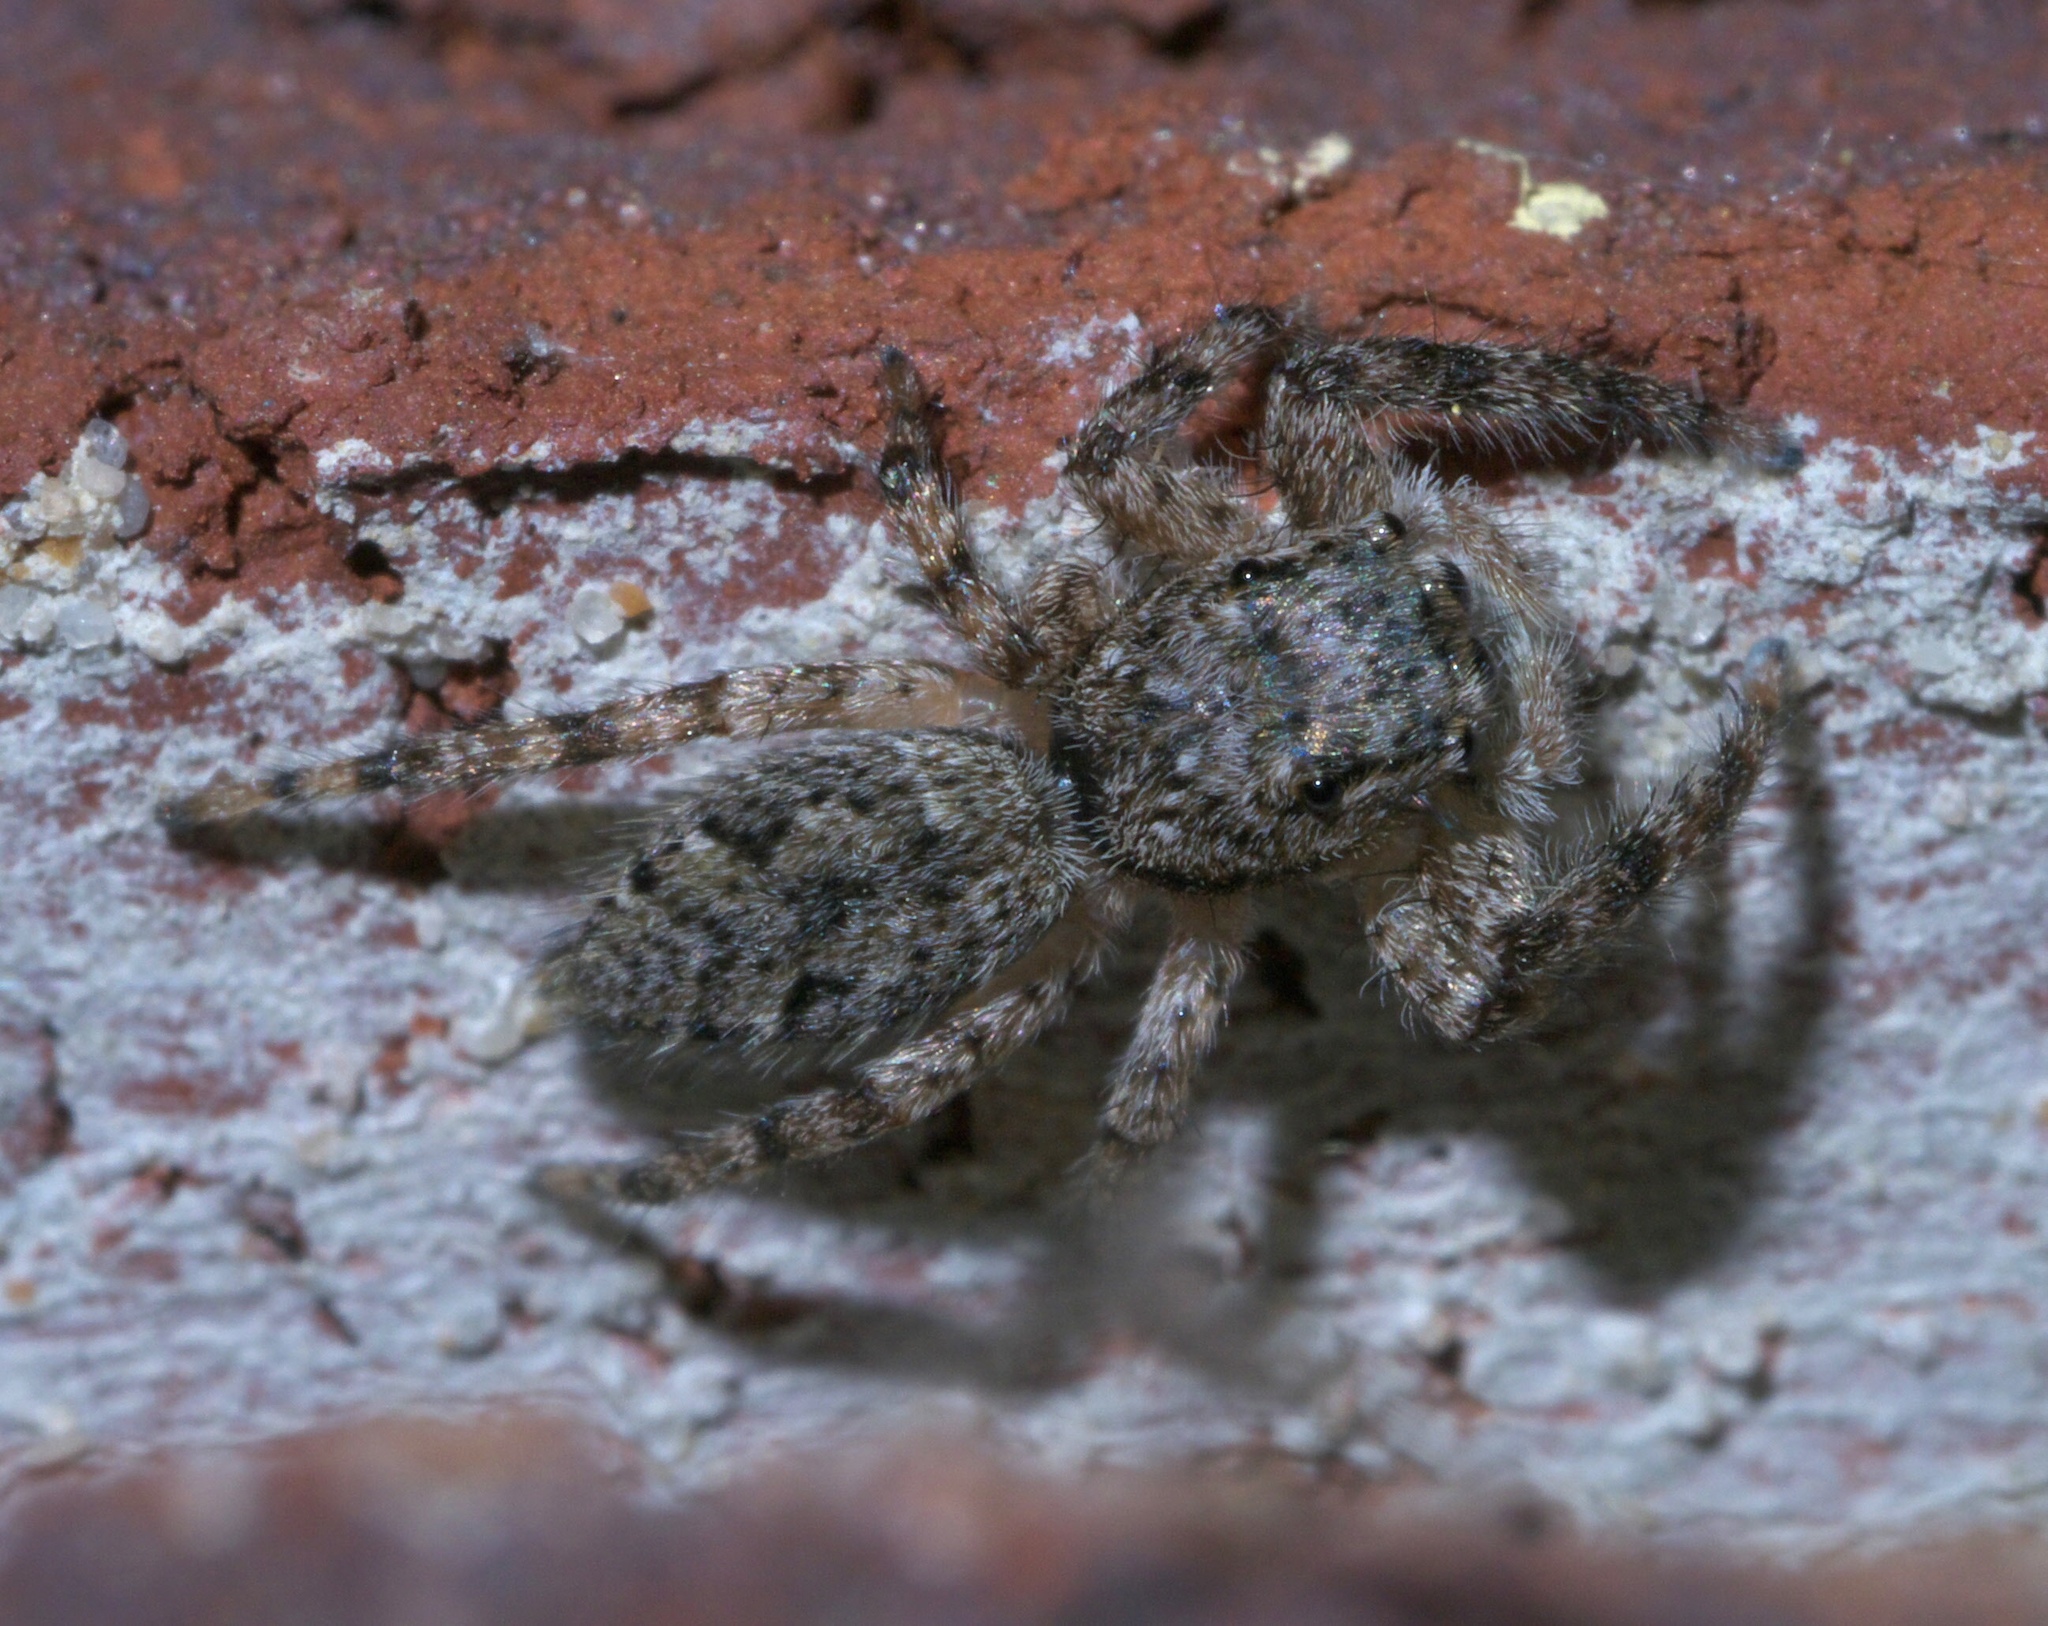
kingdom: Animalia
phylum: Arthropoda
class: Arachnida
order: Araneae
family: Salticidae
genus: Platycryptus
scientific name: Platycryptus undatus
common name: Tan jumping spider
